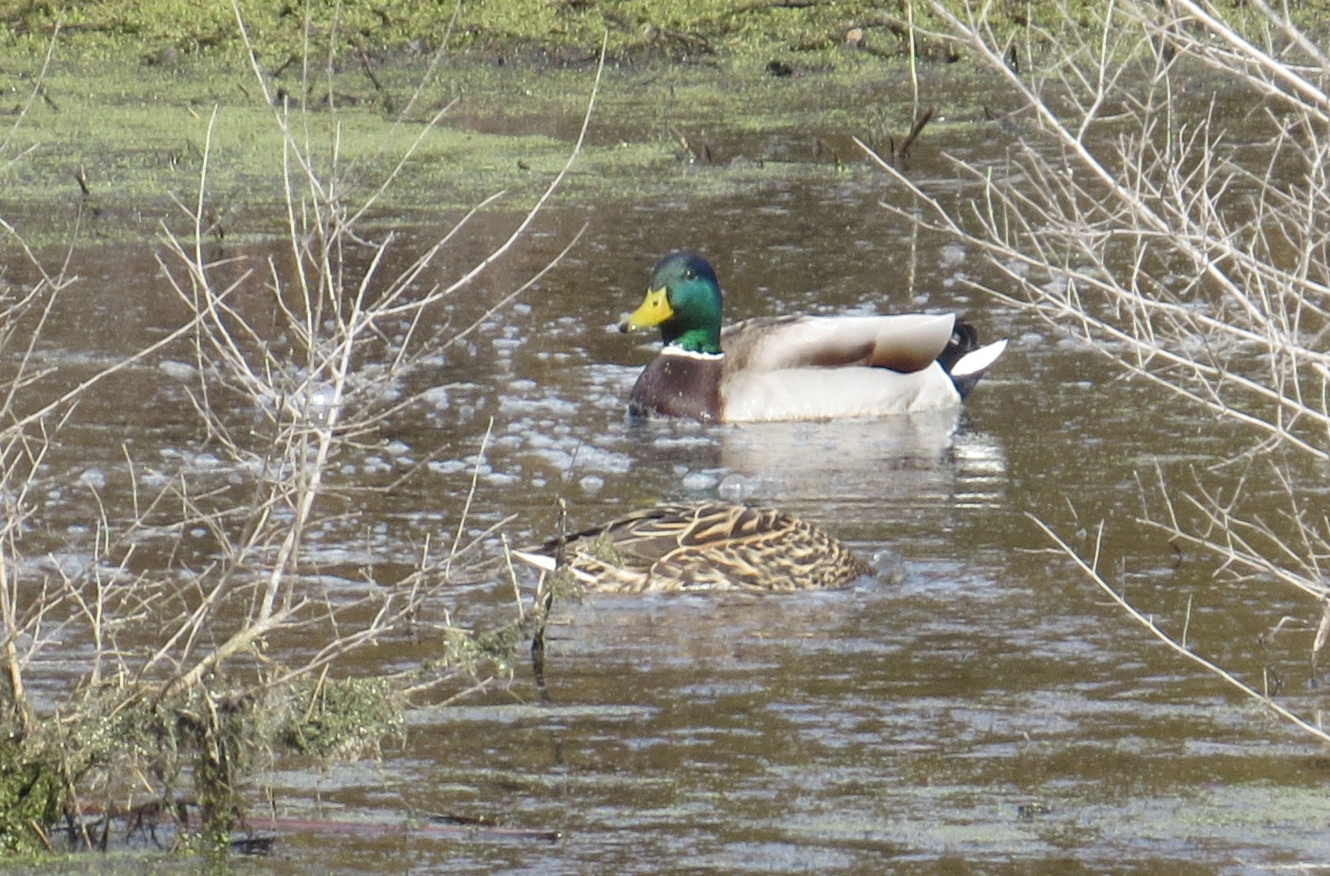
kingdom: Animalia
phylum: Chordata
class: Aves
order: Anseriformes
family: Anatidae
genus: Anas
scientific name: Anas platyrhynchos
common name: Mallard
